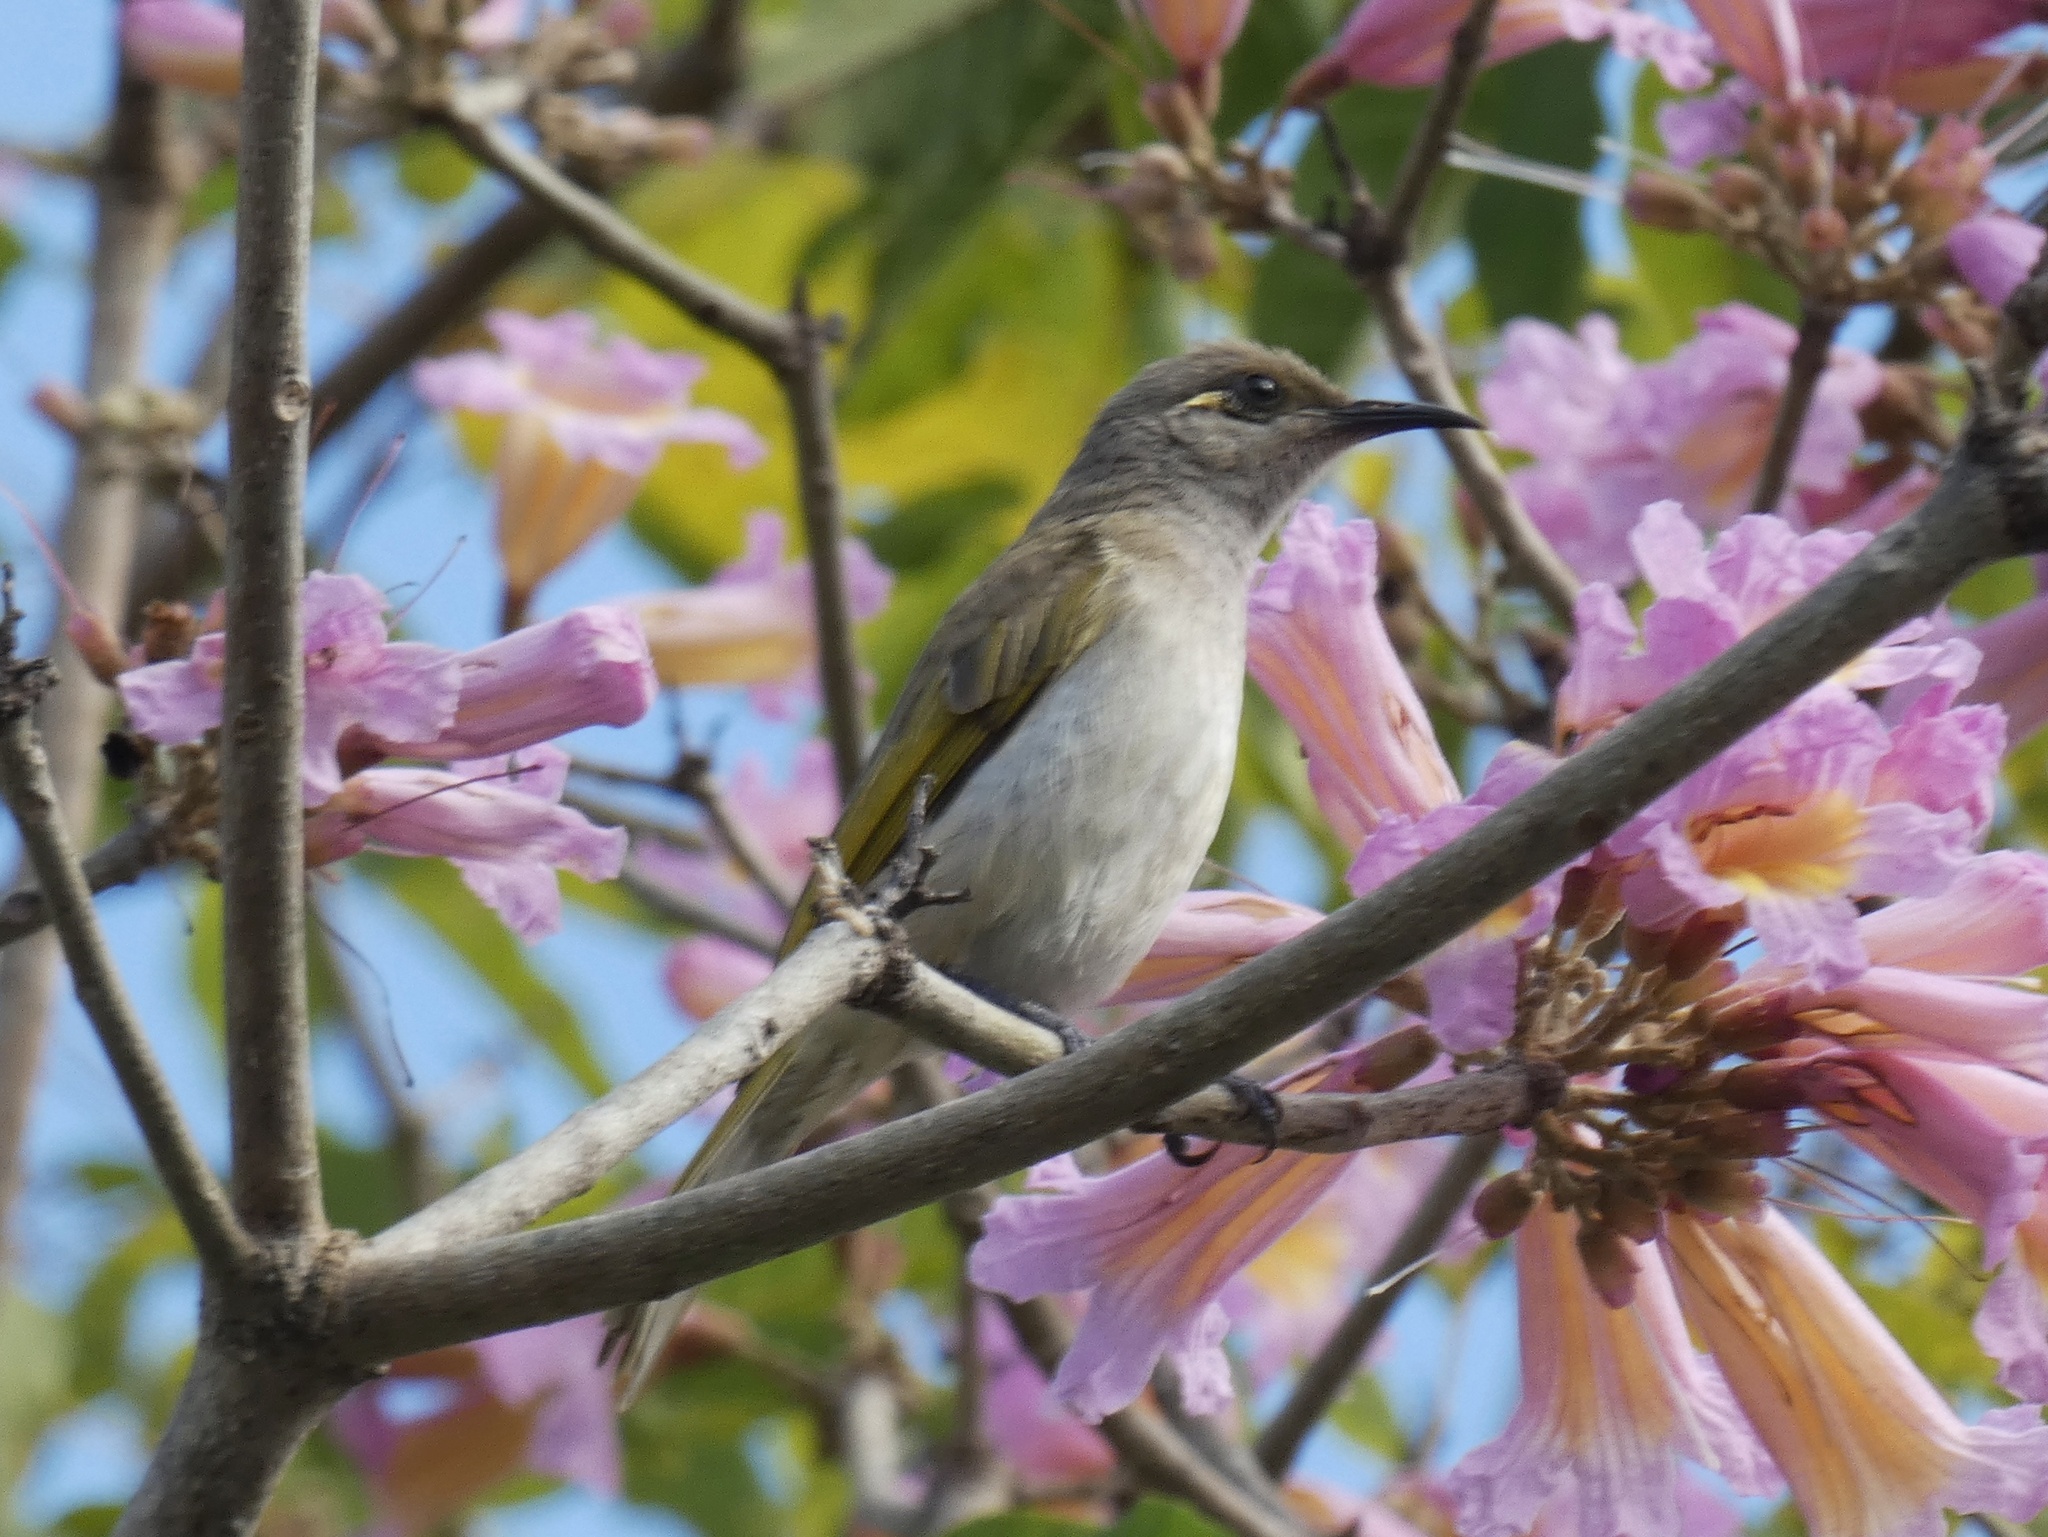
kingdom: Animalia
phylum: Chordata
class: Aves
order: Passeriformes
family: Meliphagidae
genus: Lichmera
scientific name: Lichmera indistincta
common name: Brown honeyeater
